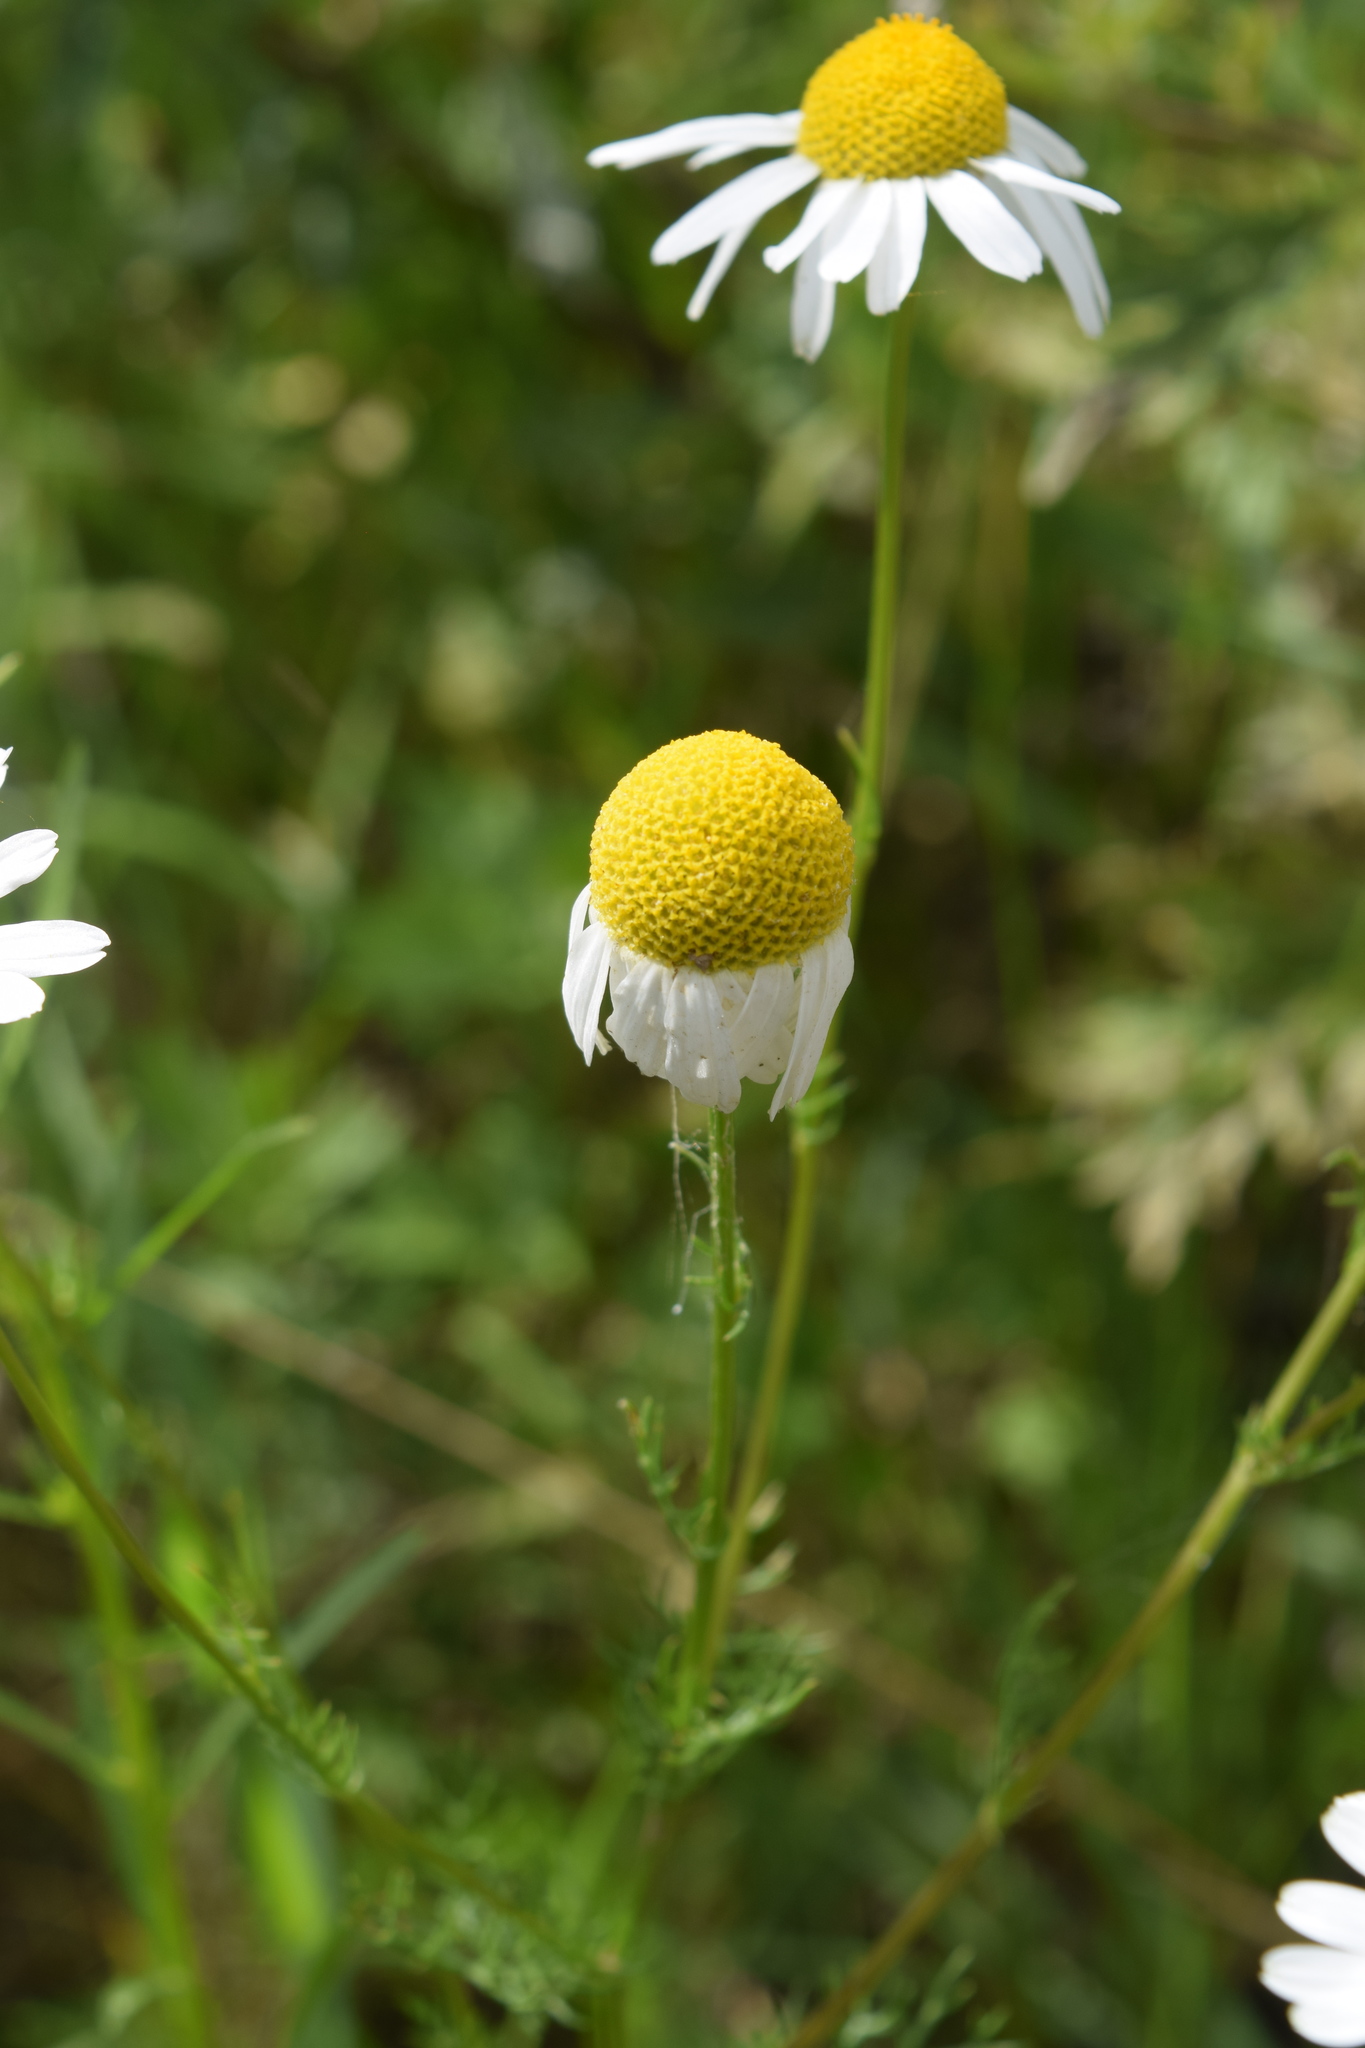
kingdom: Plantae
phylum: Tracheophyta
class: Magnoliopsida
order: Asterales
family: Asteraceae
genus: Tripleurospermum
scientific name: Tripleurospermum inodorum
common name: Scentless mayweed
